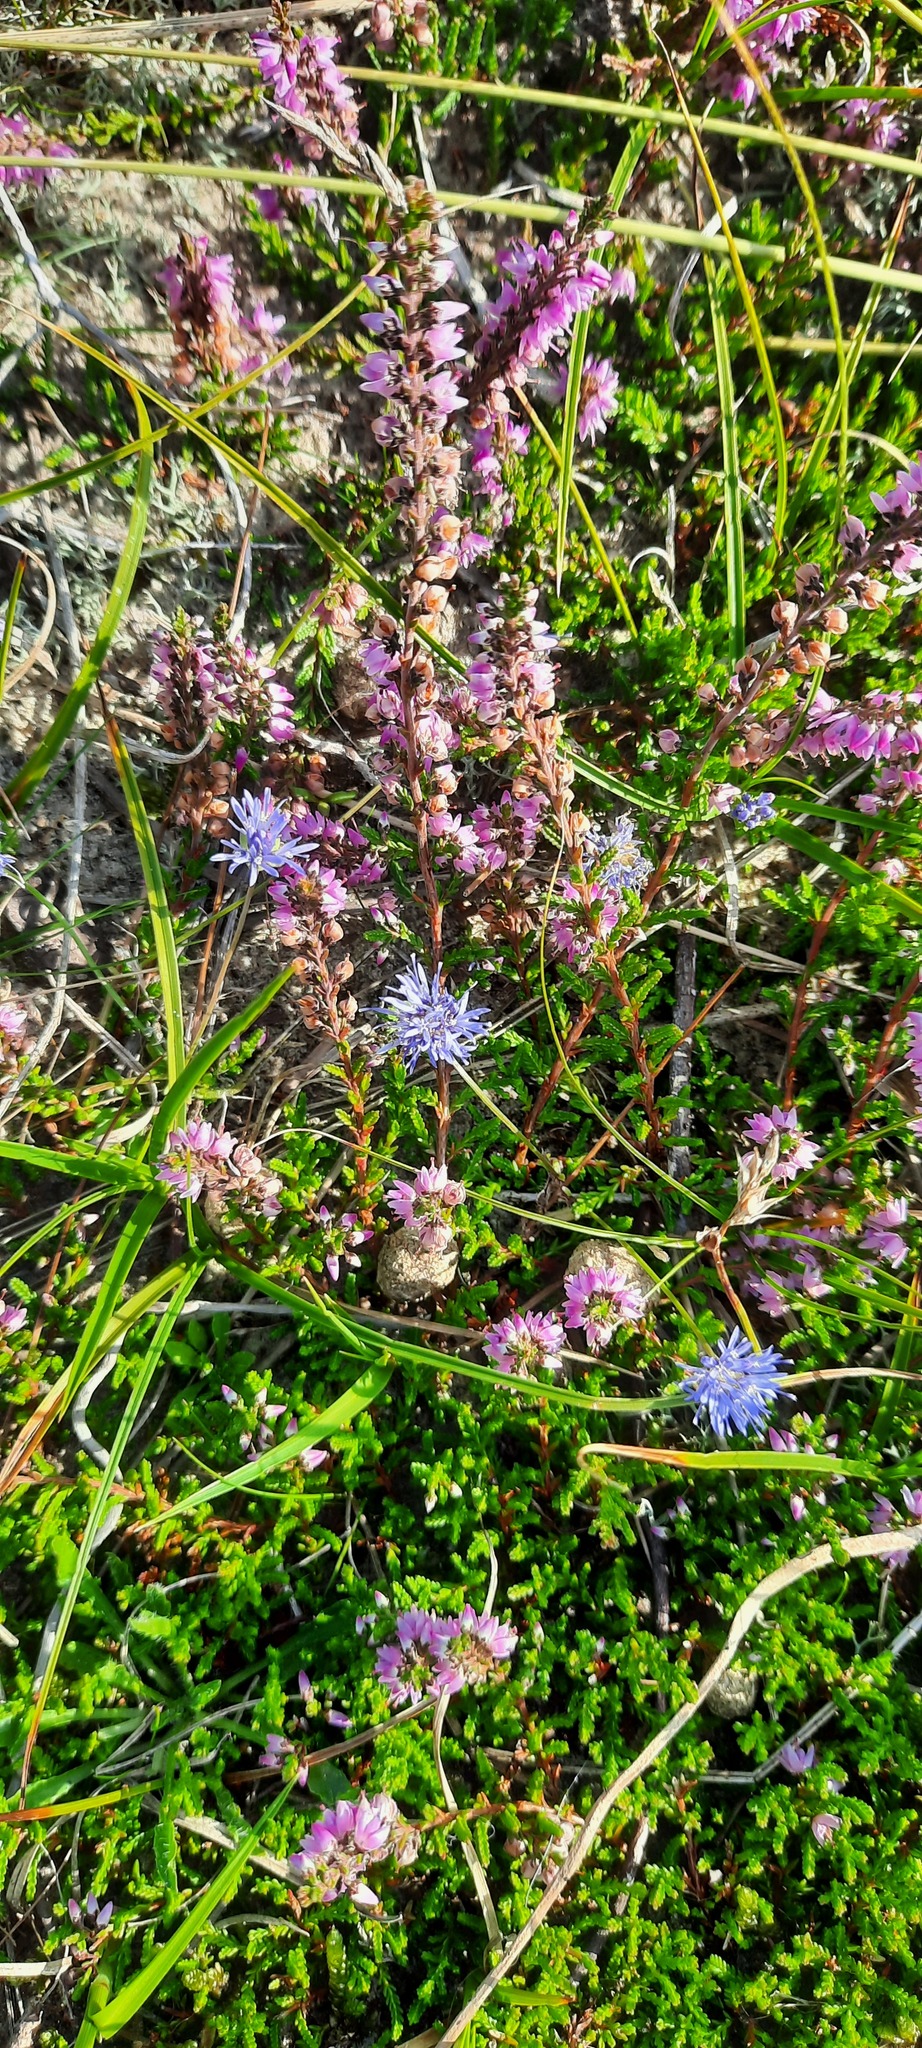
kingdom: Plantae
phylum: Tracheophyta
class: Magnoliopsida
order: Asterales
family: Campanulaceae
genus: Jasione
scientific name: Jasione montana
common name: Sheep's-bit
